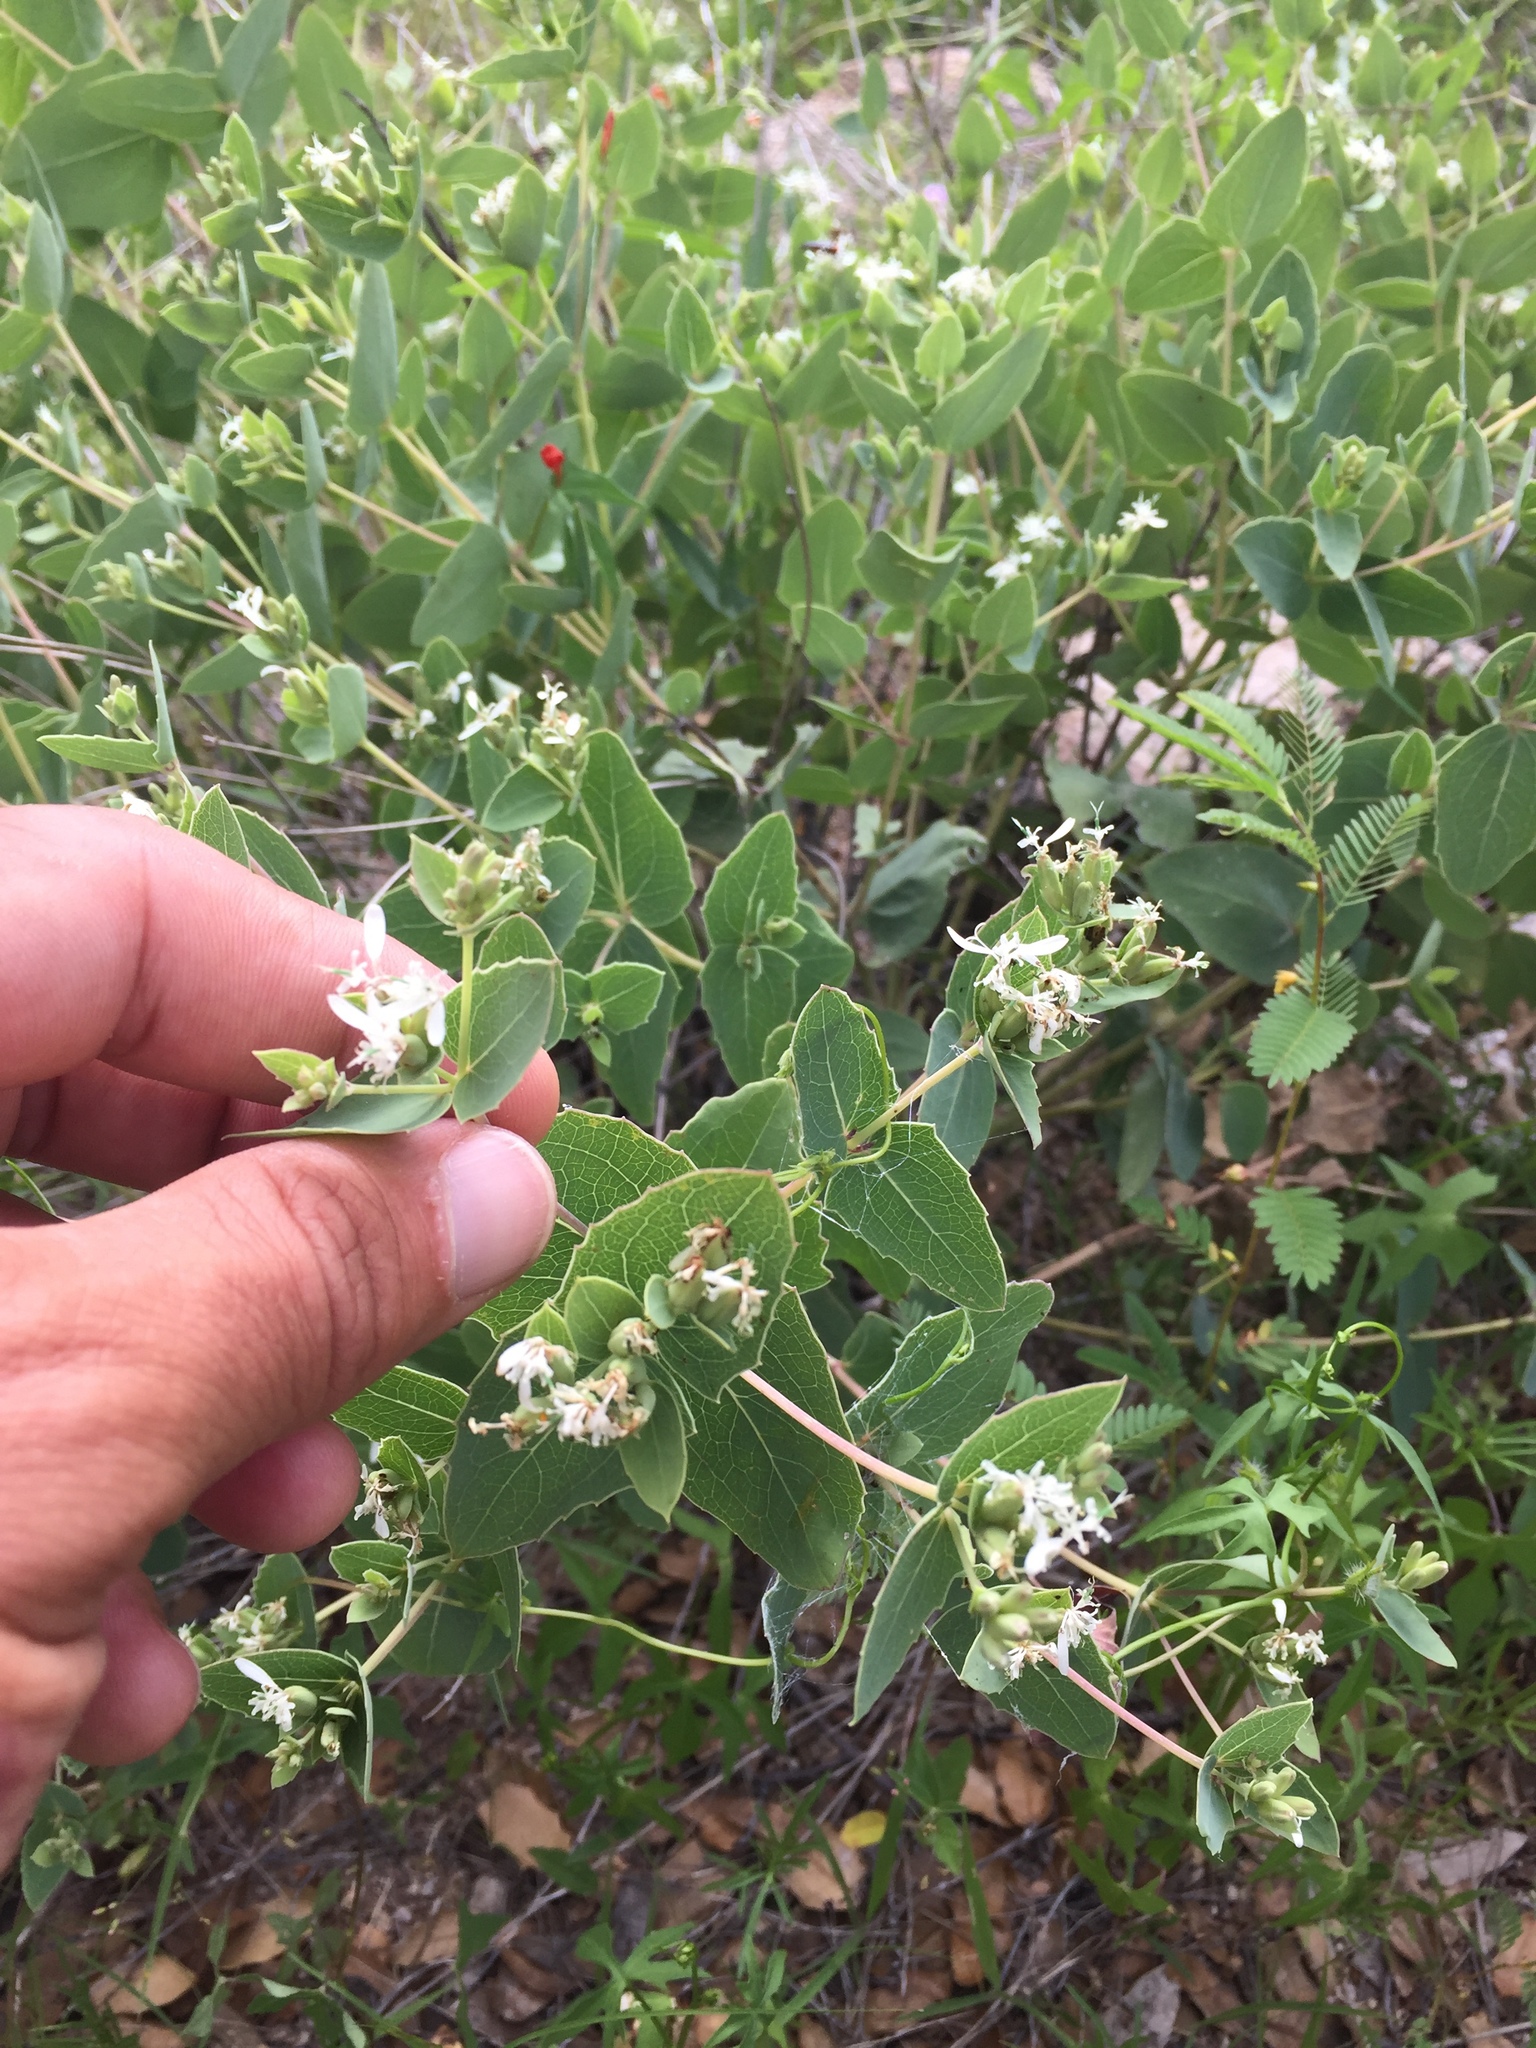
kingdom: Plantae
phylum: Tracheophyta
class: Magnoliopsida
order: Asterales
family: Asteraceae
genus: Guardiola
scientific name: Guardiola platyphylla
